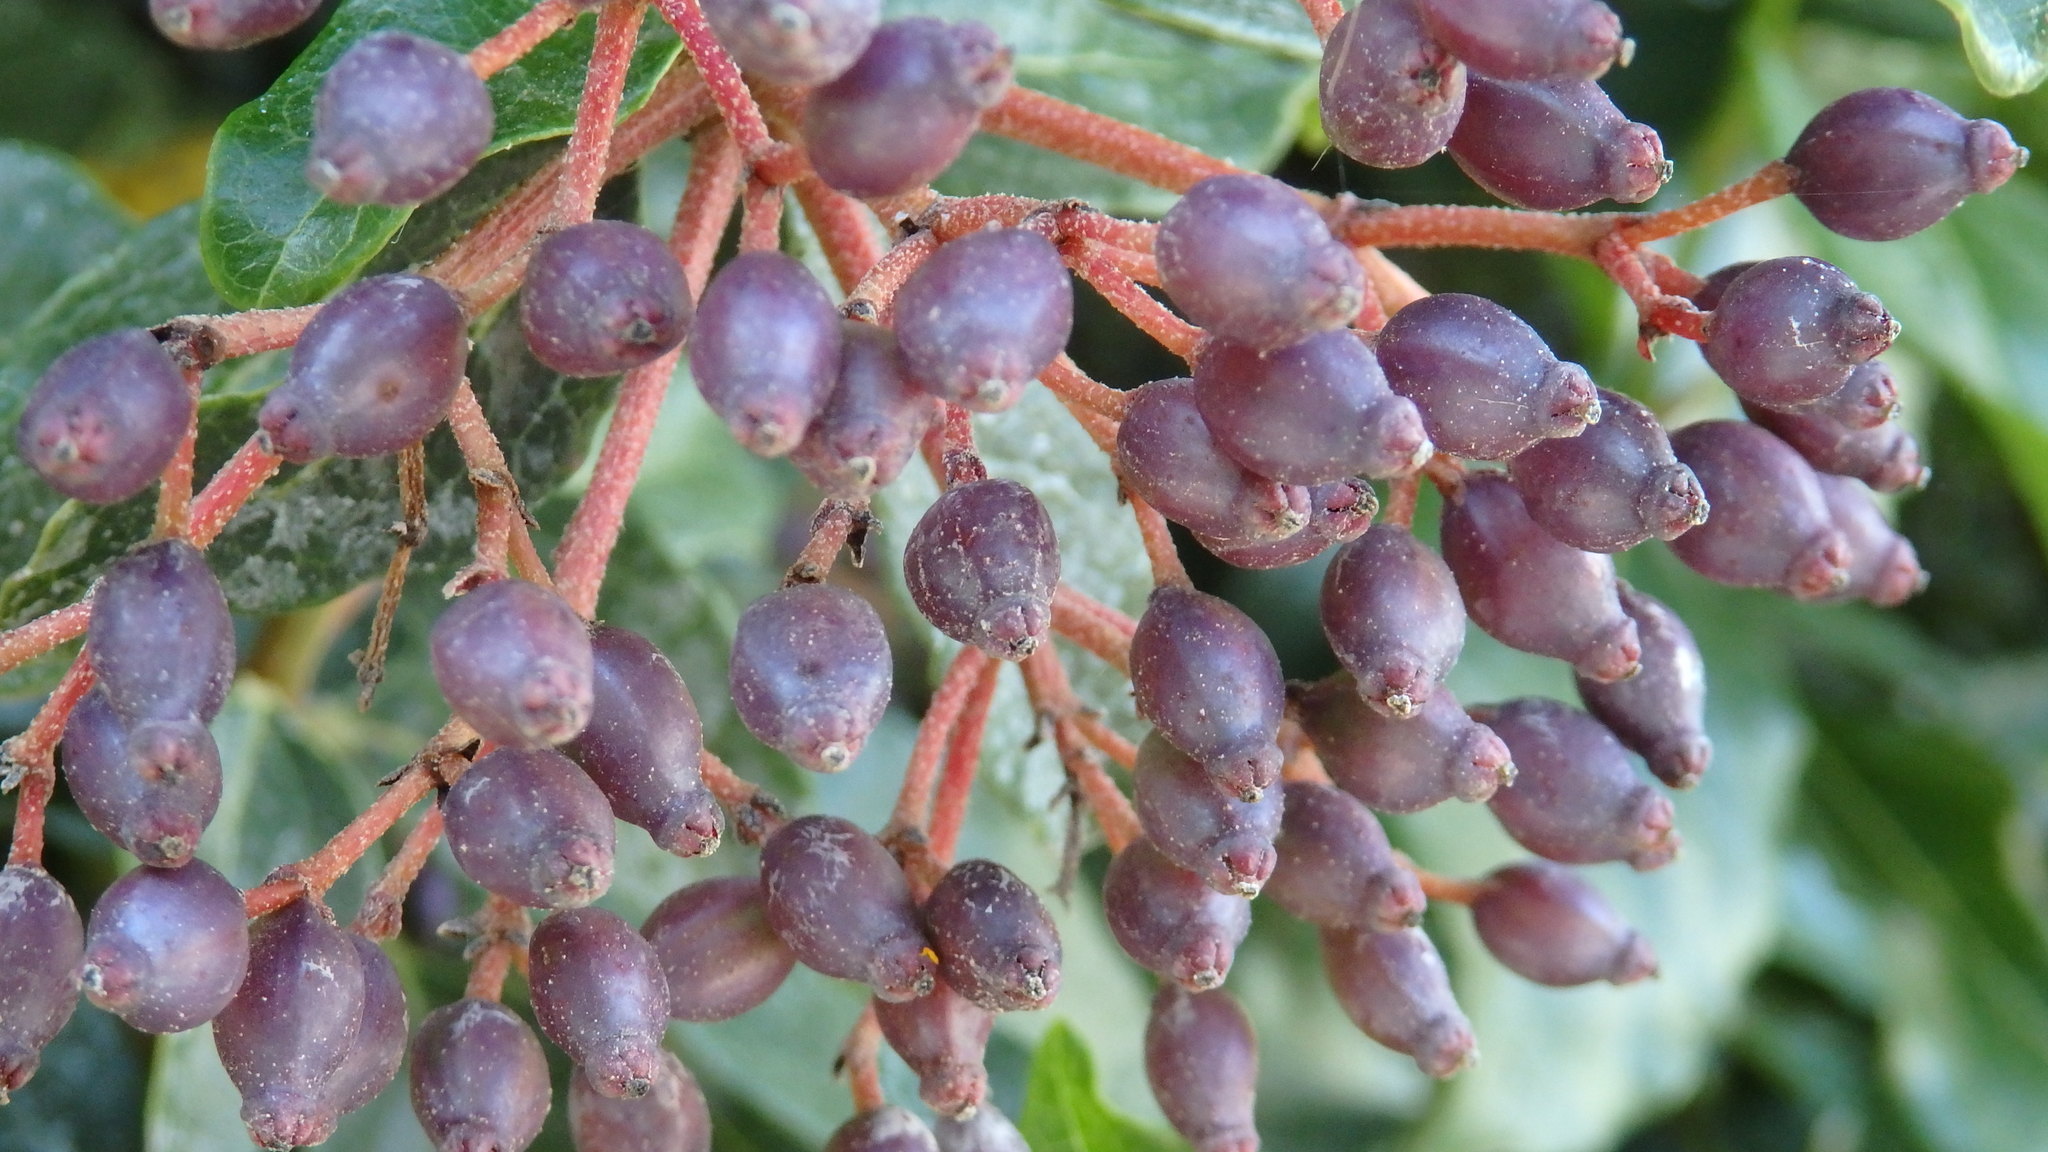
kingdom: Plantae
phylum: Tracheophyta
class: Magnoliopsida
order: Dipsacales
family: Viburnaceae
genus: Viburnum
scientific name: Viburnum tinus
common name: Laurustinus
